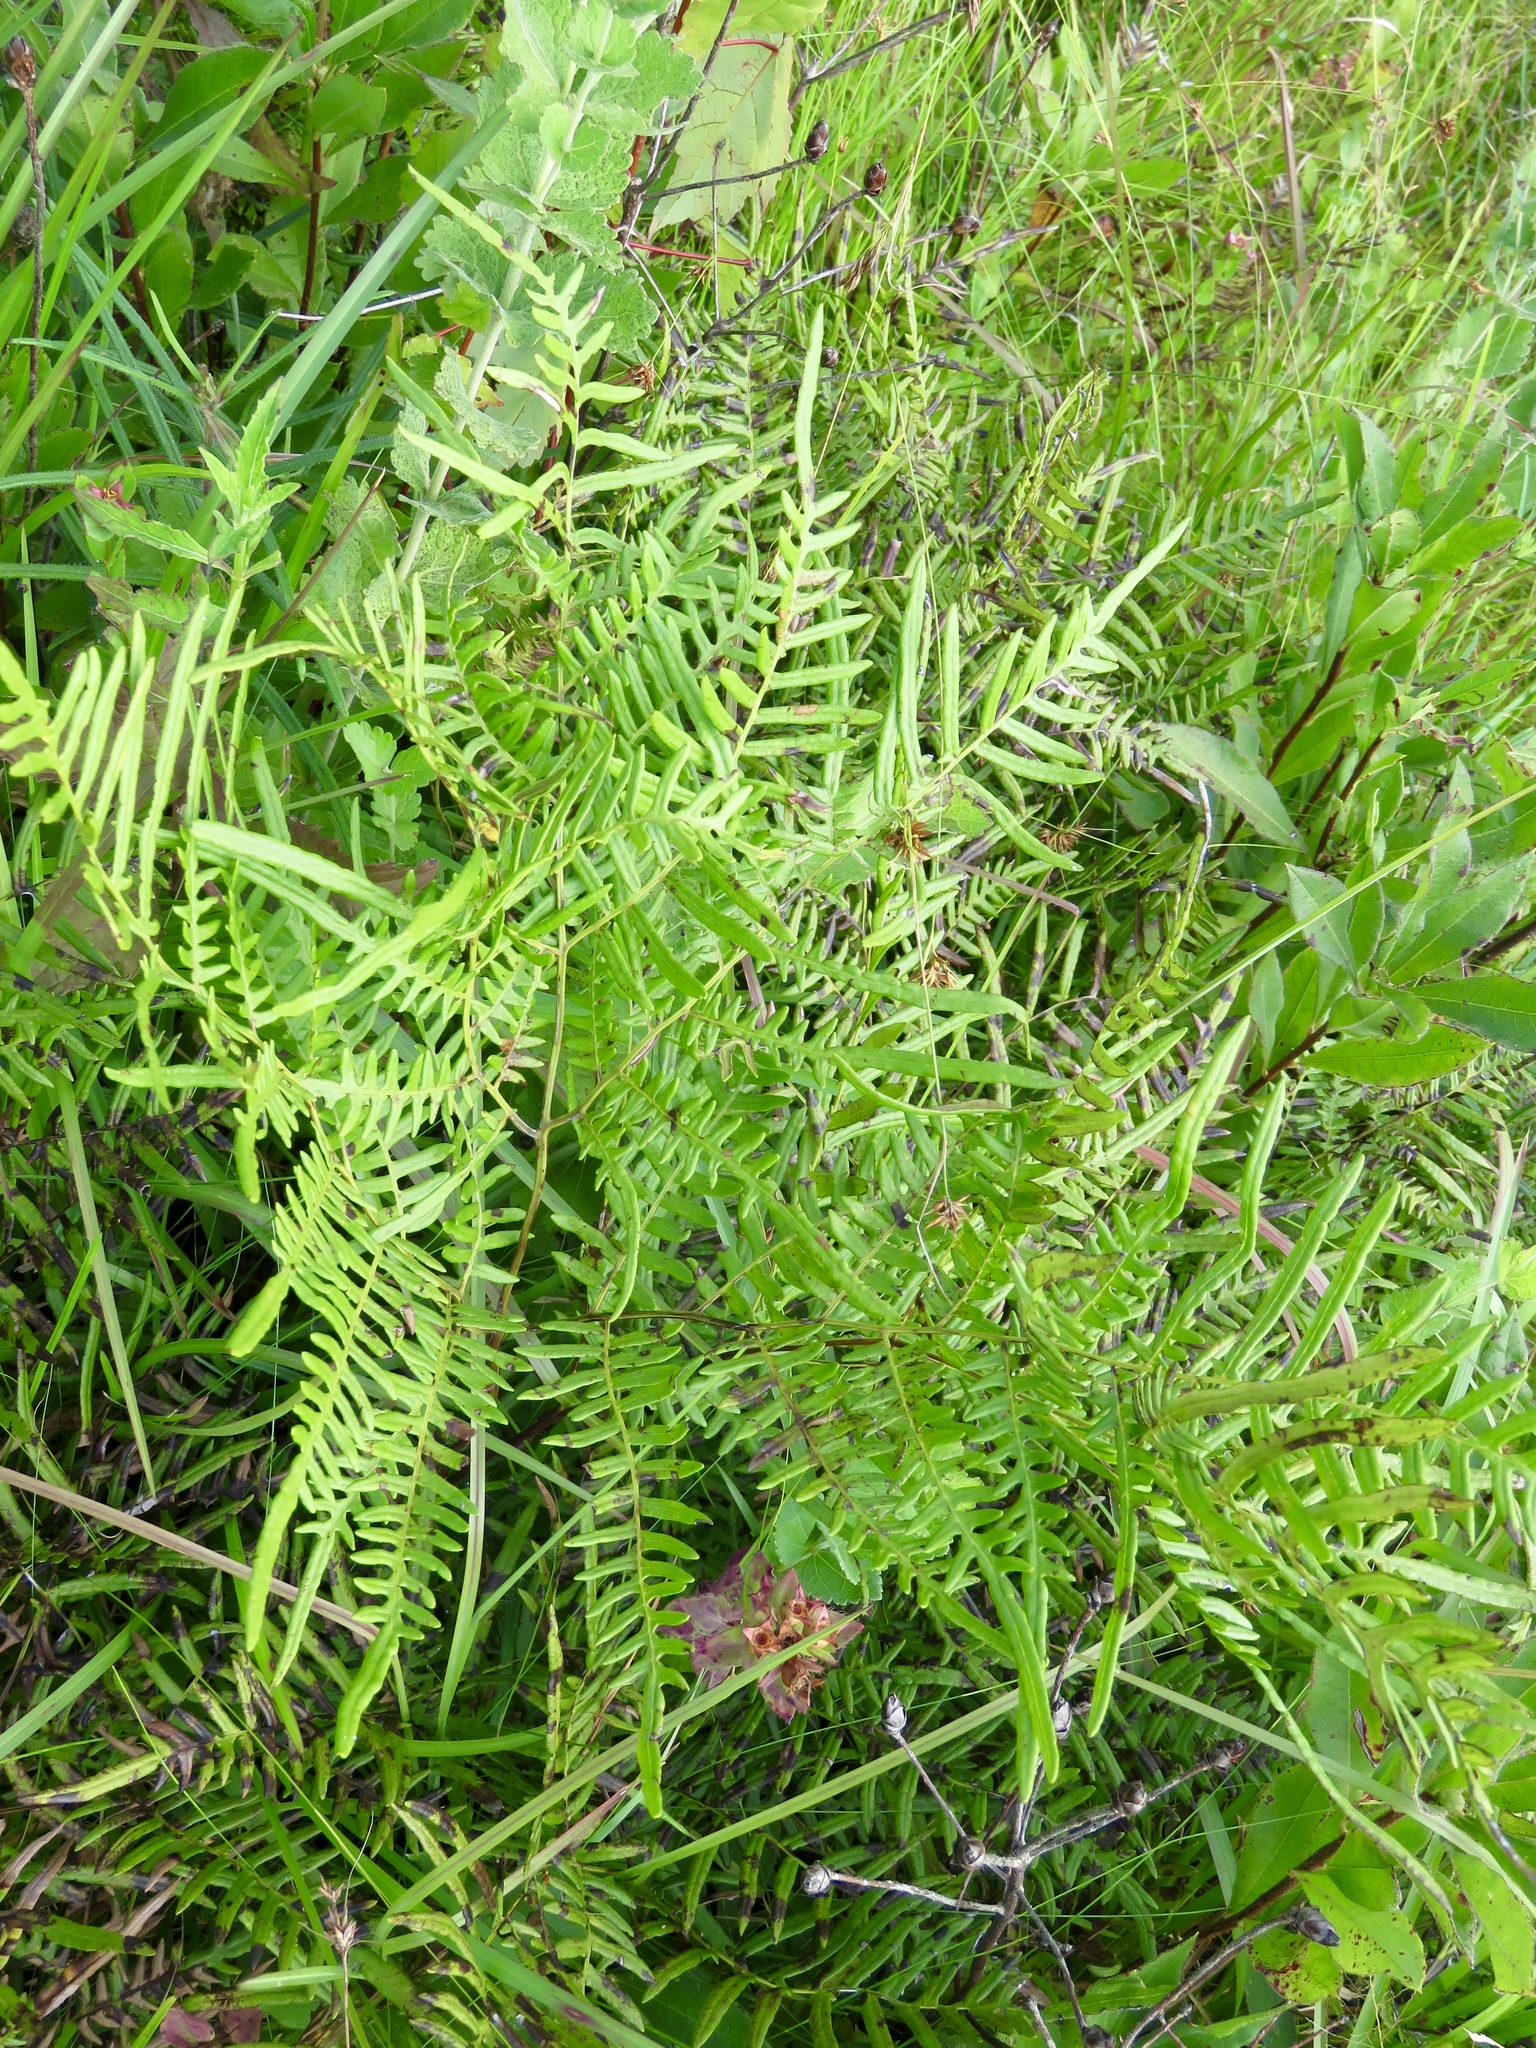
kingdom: Plantae
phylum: Tracheophyta
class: Polypodiopsida
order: Polypodiales
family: Dennstaedtiaceae
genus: Pteridium
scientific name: Pteridium aquilinum
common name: Bracken
